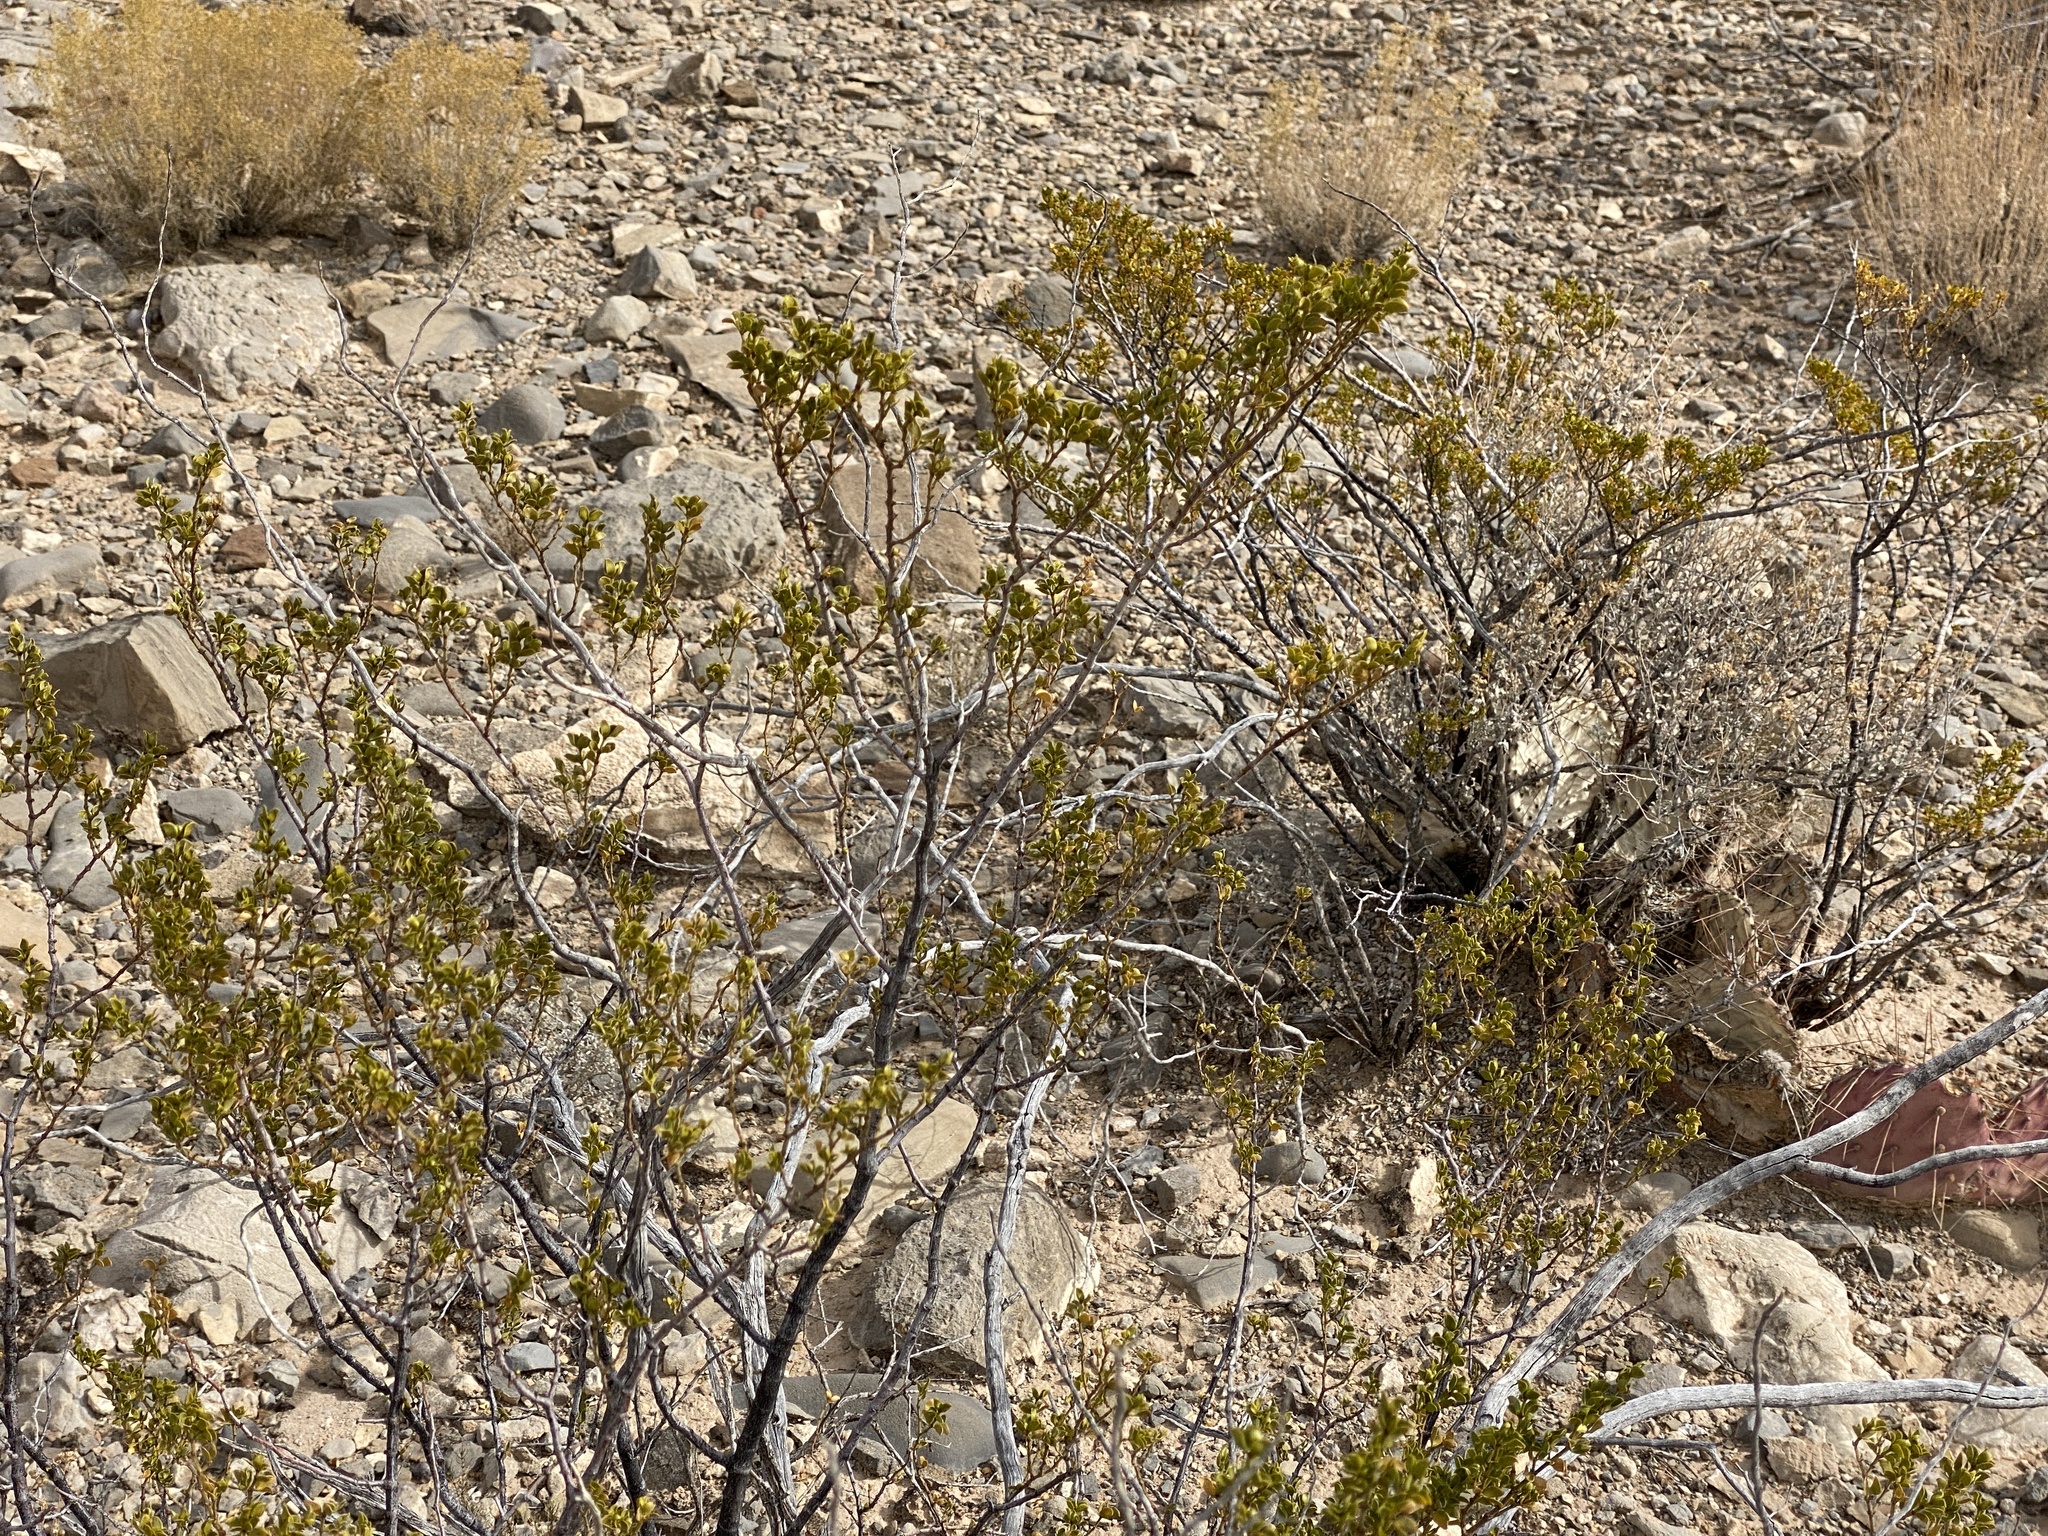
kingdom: Plantae
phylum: Tracheophyta
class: Magnoliopsida
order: Zygophyllales
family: Zygophyllaceae
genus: Larrea
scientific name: Larrea tridentata
